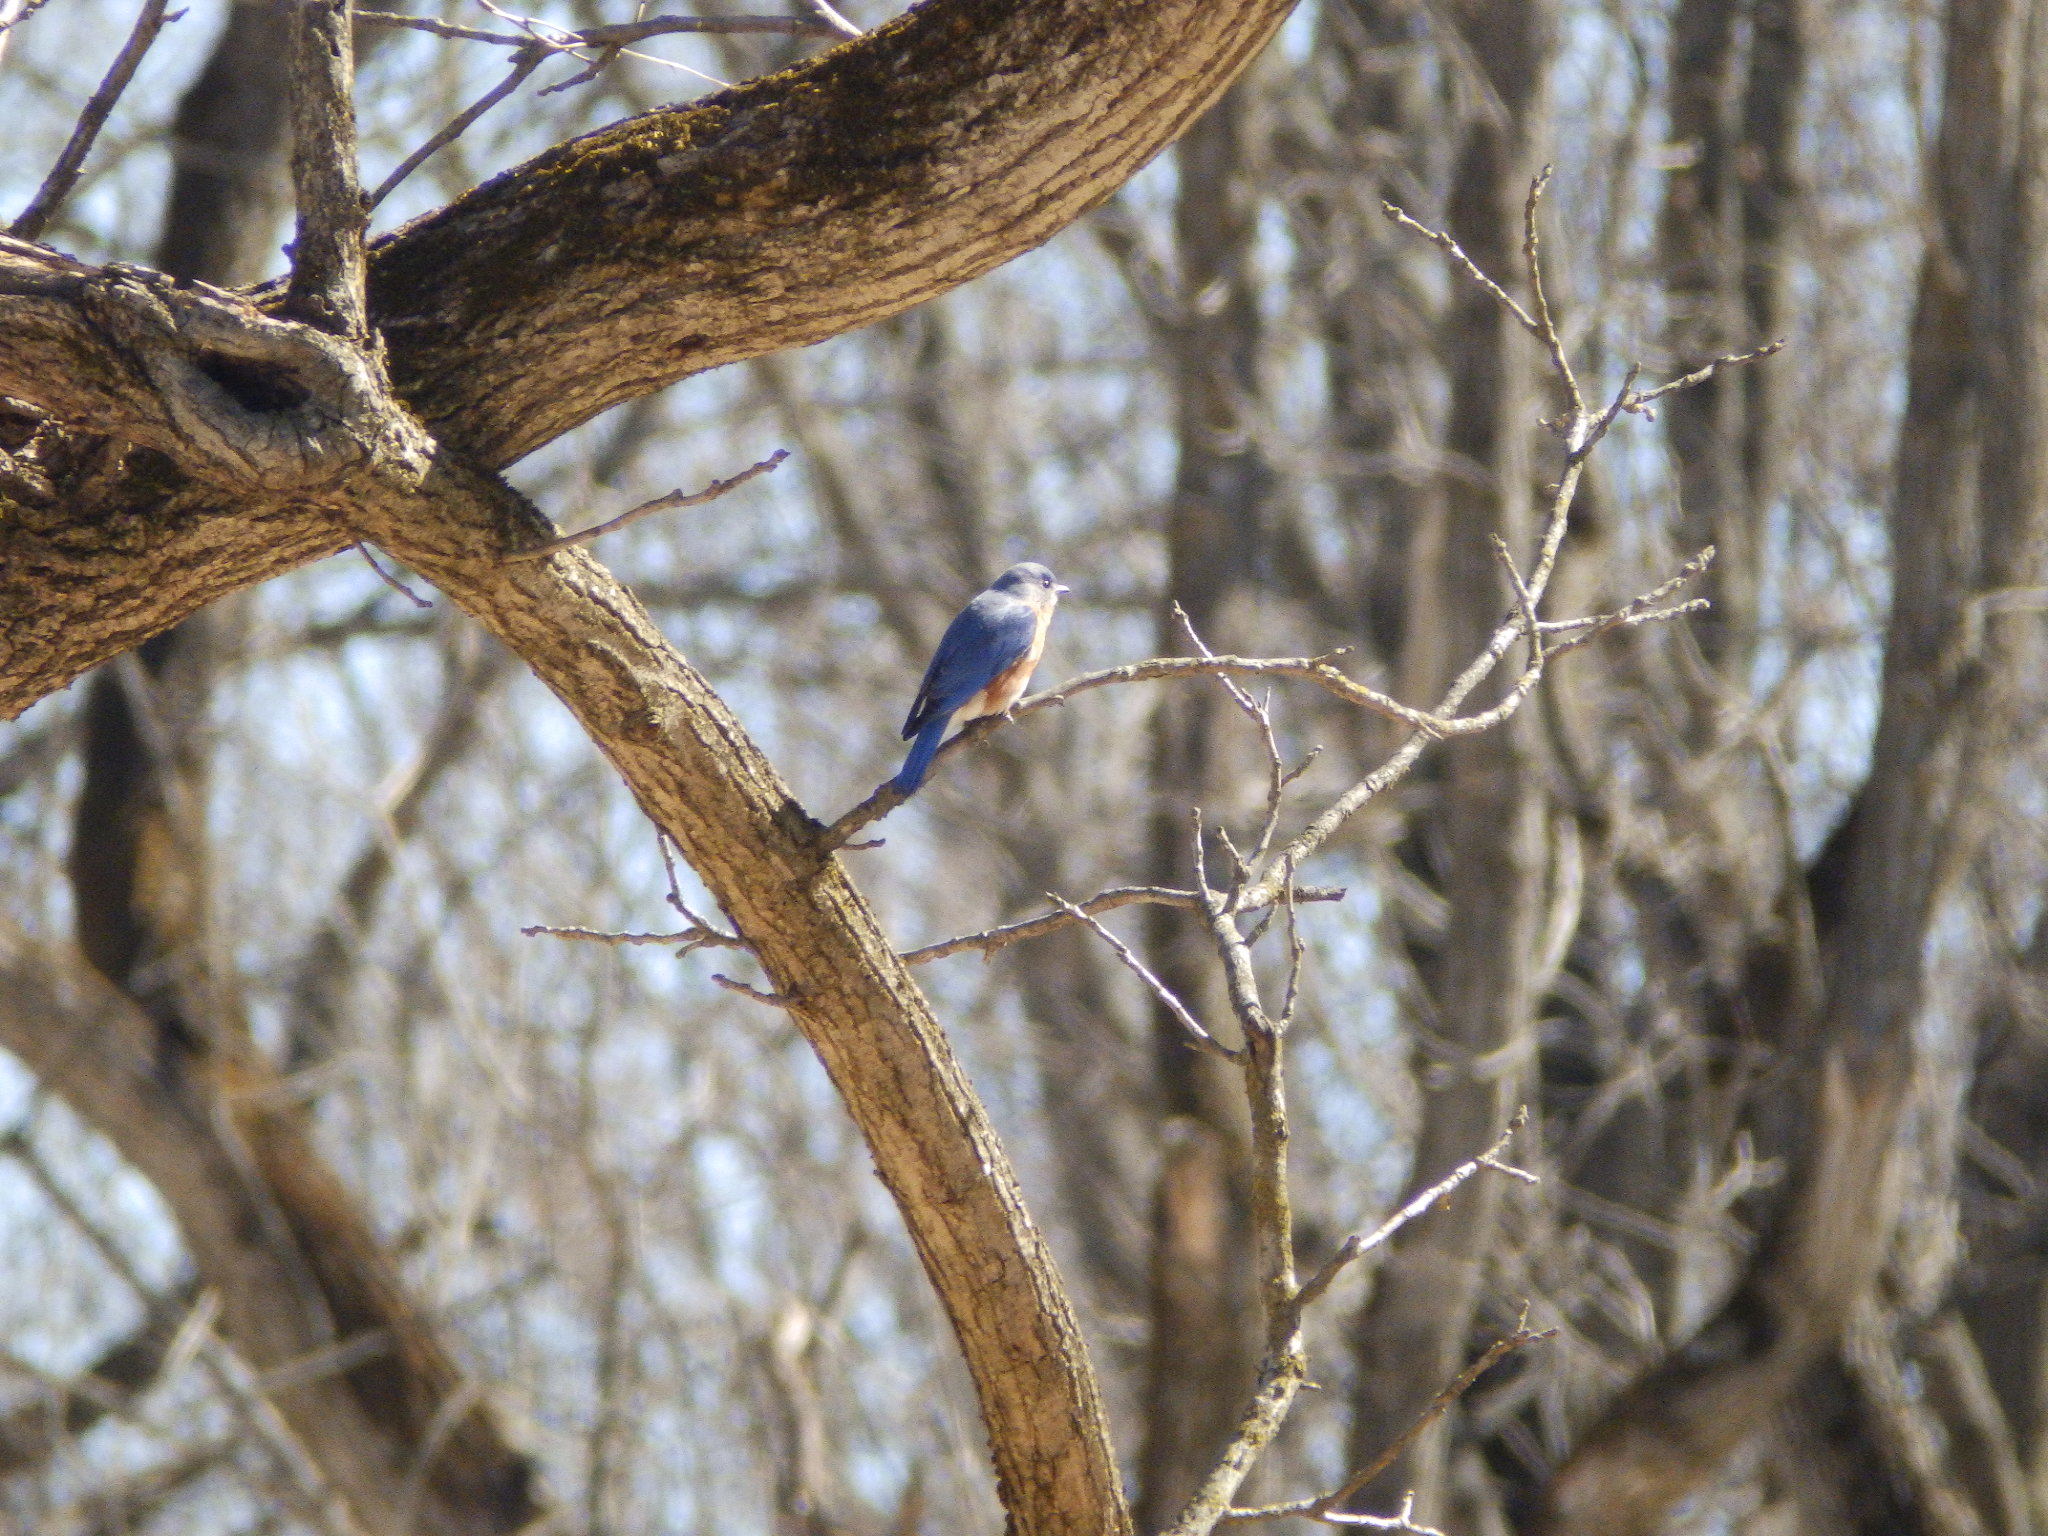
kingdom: Animalia
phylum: Chordata
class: Aves
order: Passeriformes
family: Turdidae
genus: Sialia
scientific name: Sialia sialis
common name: Eastern bluebird
